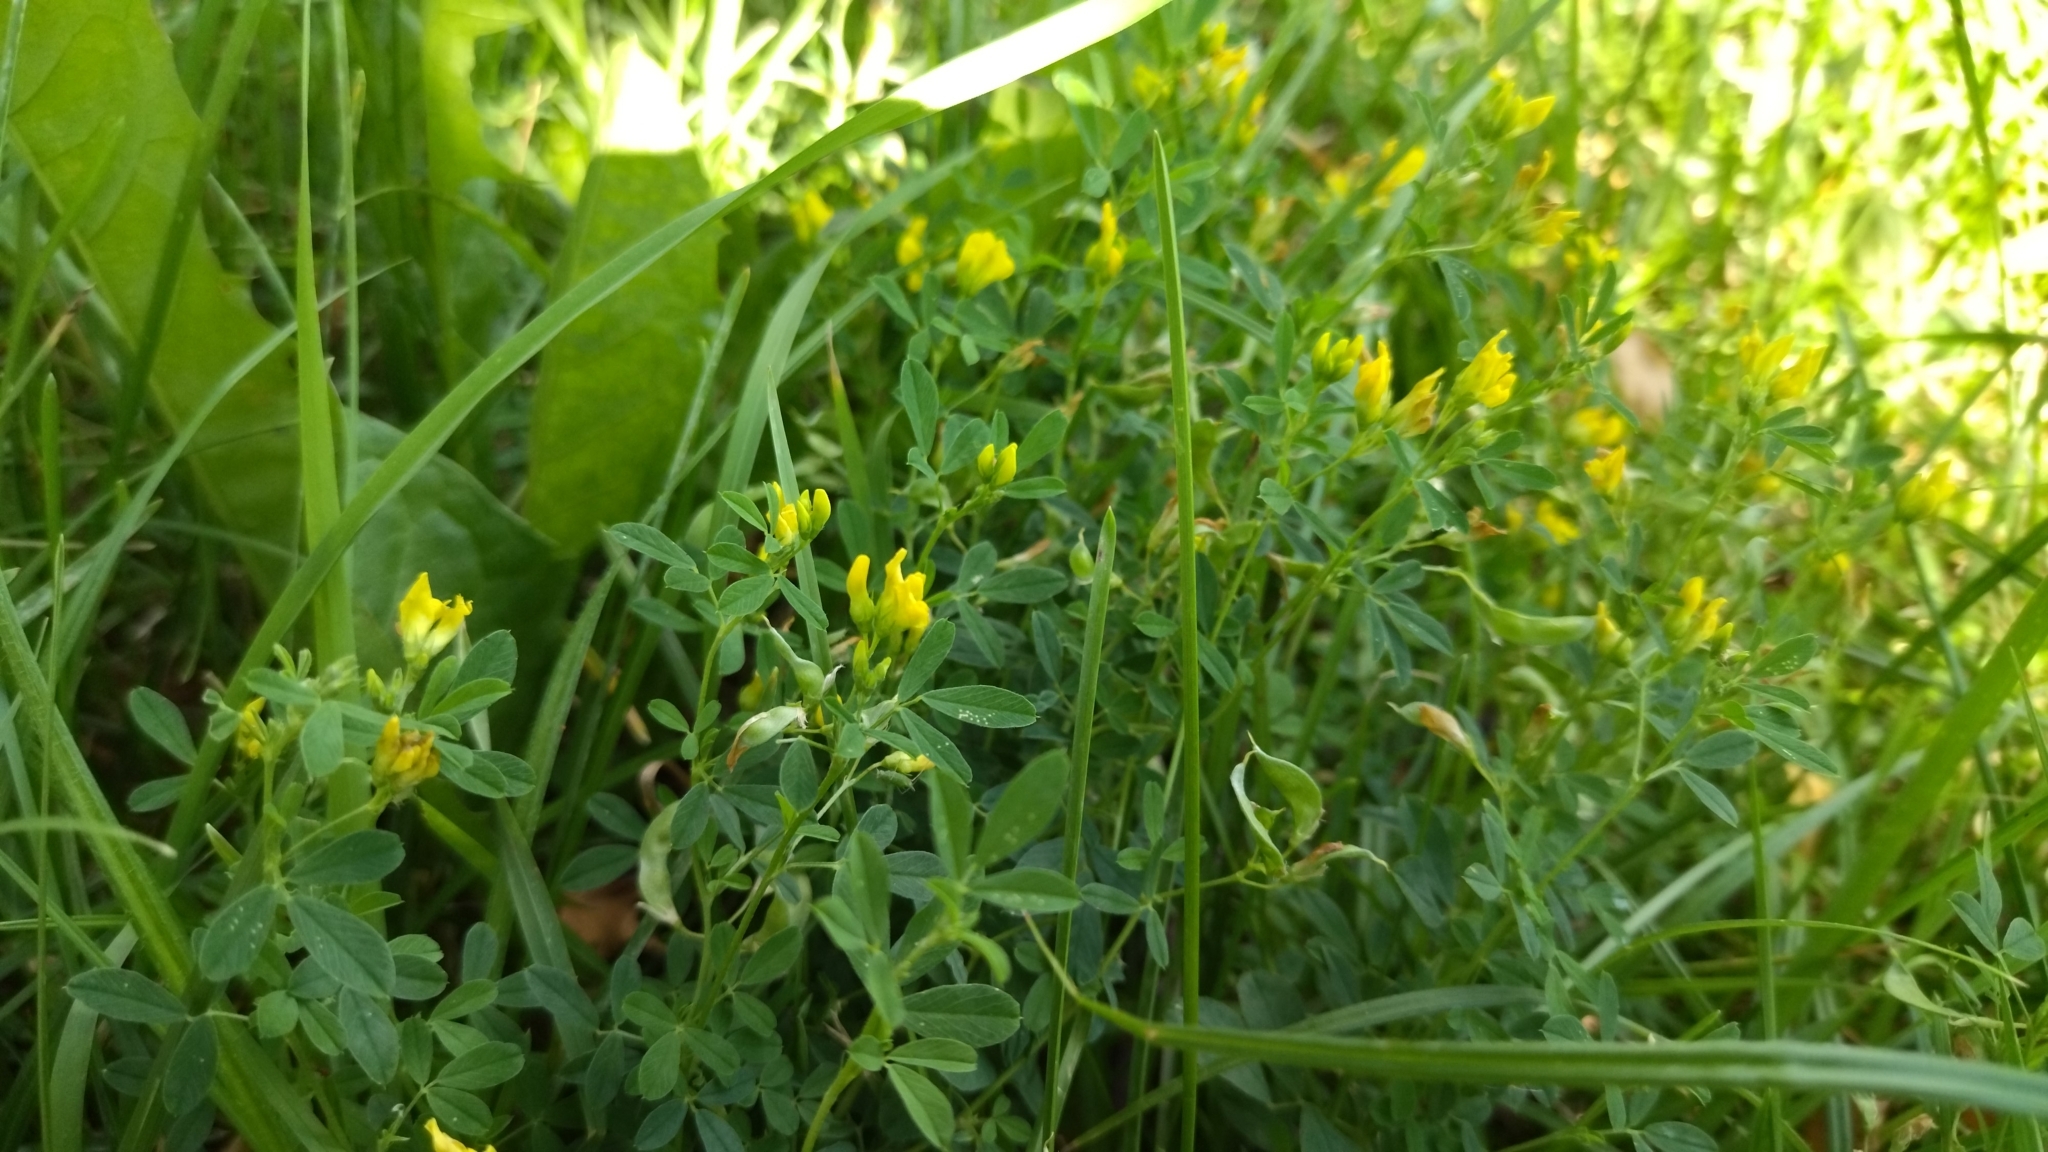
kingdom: Plantae
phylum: Tracheophyta
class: Magnoliopsida
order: Fabales
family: Fabaceae
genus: Medicago
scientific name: Medicago falcata
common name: Sickle medick
